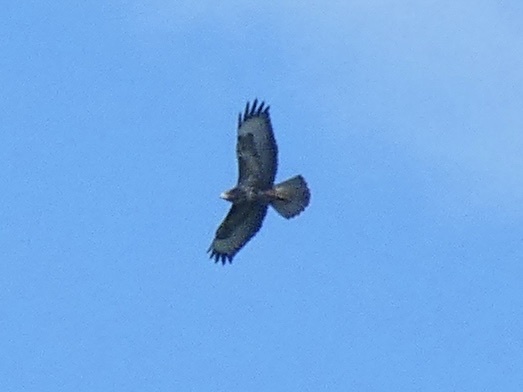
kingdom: Animalia
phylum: Chordata
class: Aves
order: Accipitriformes
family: Accipitridae
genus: Buteo
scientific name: Buteo buteo
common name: Common buzzard
